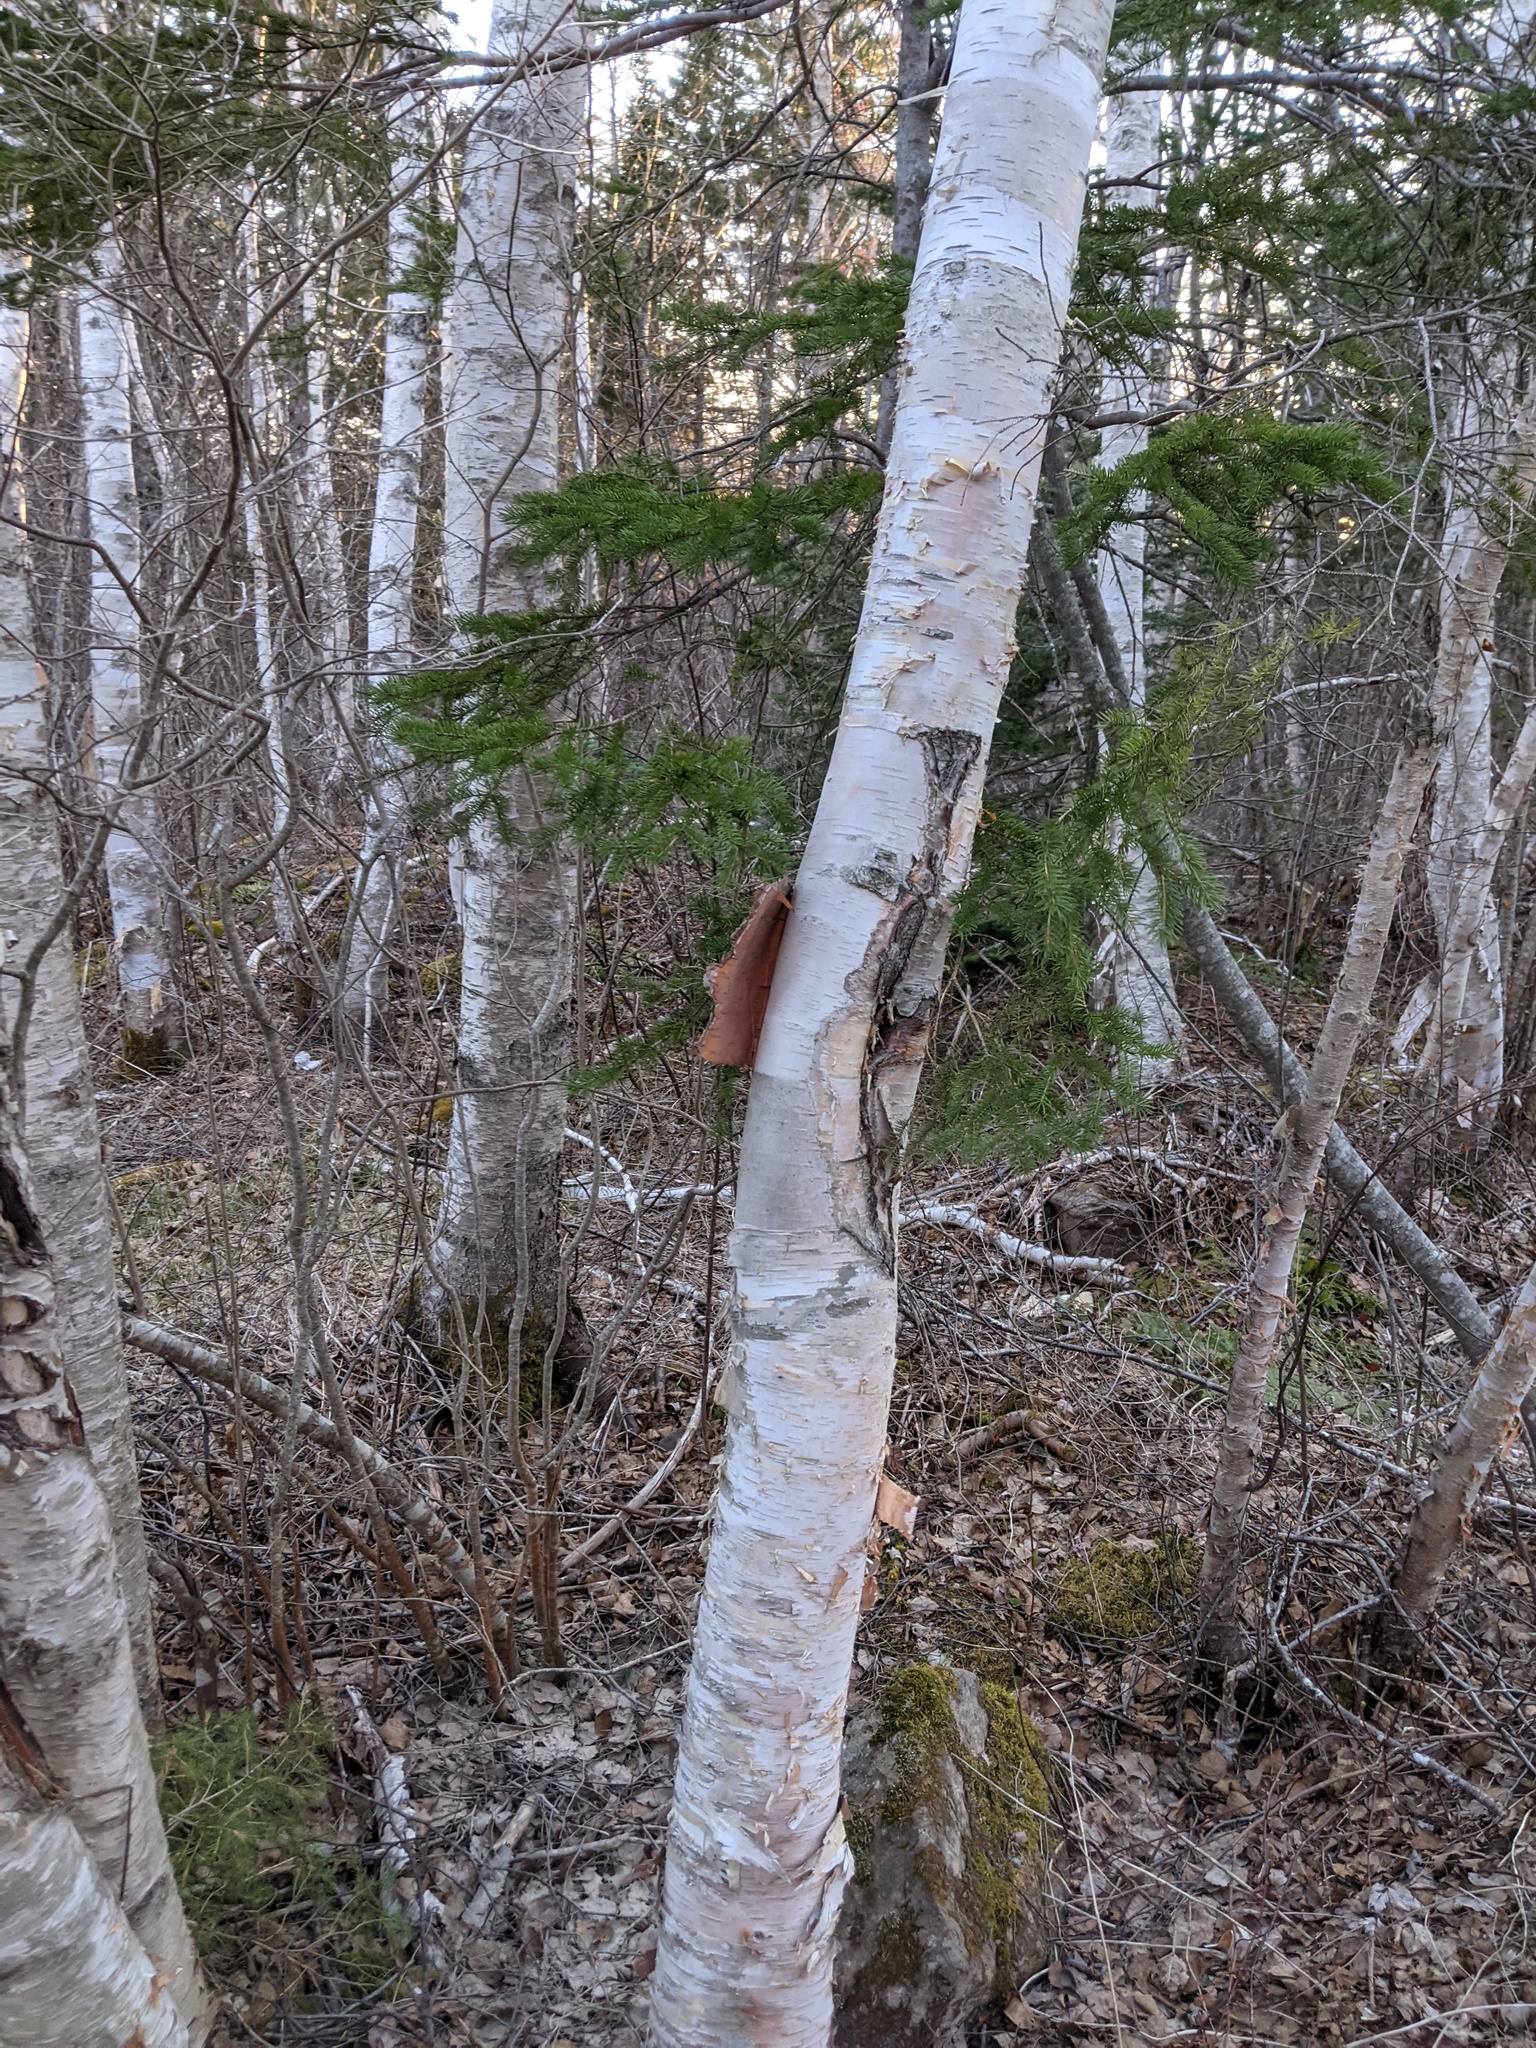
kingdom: Plantae
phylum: Tracheophyta
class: Magnoliopsida
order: Fagales
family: Betulaceae
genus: Betula
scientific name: Betula papyrifera
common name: Paper birch
